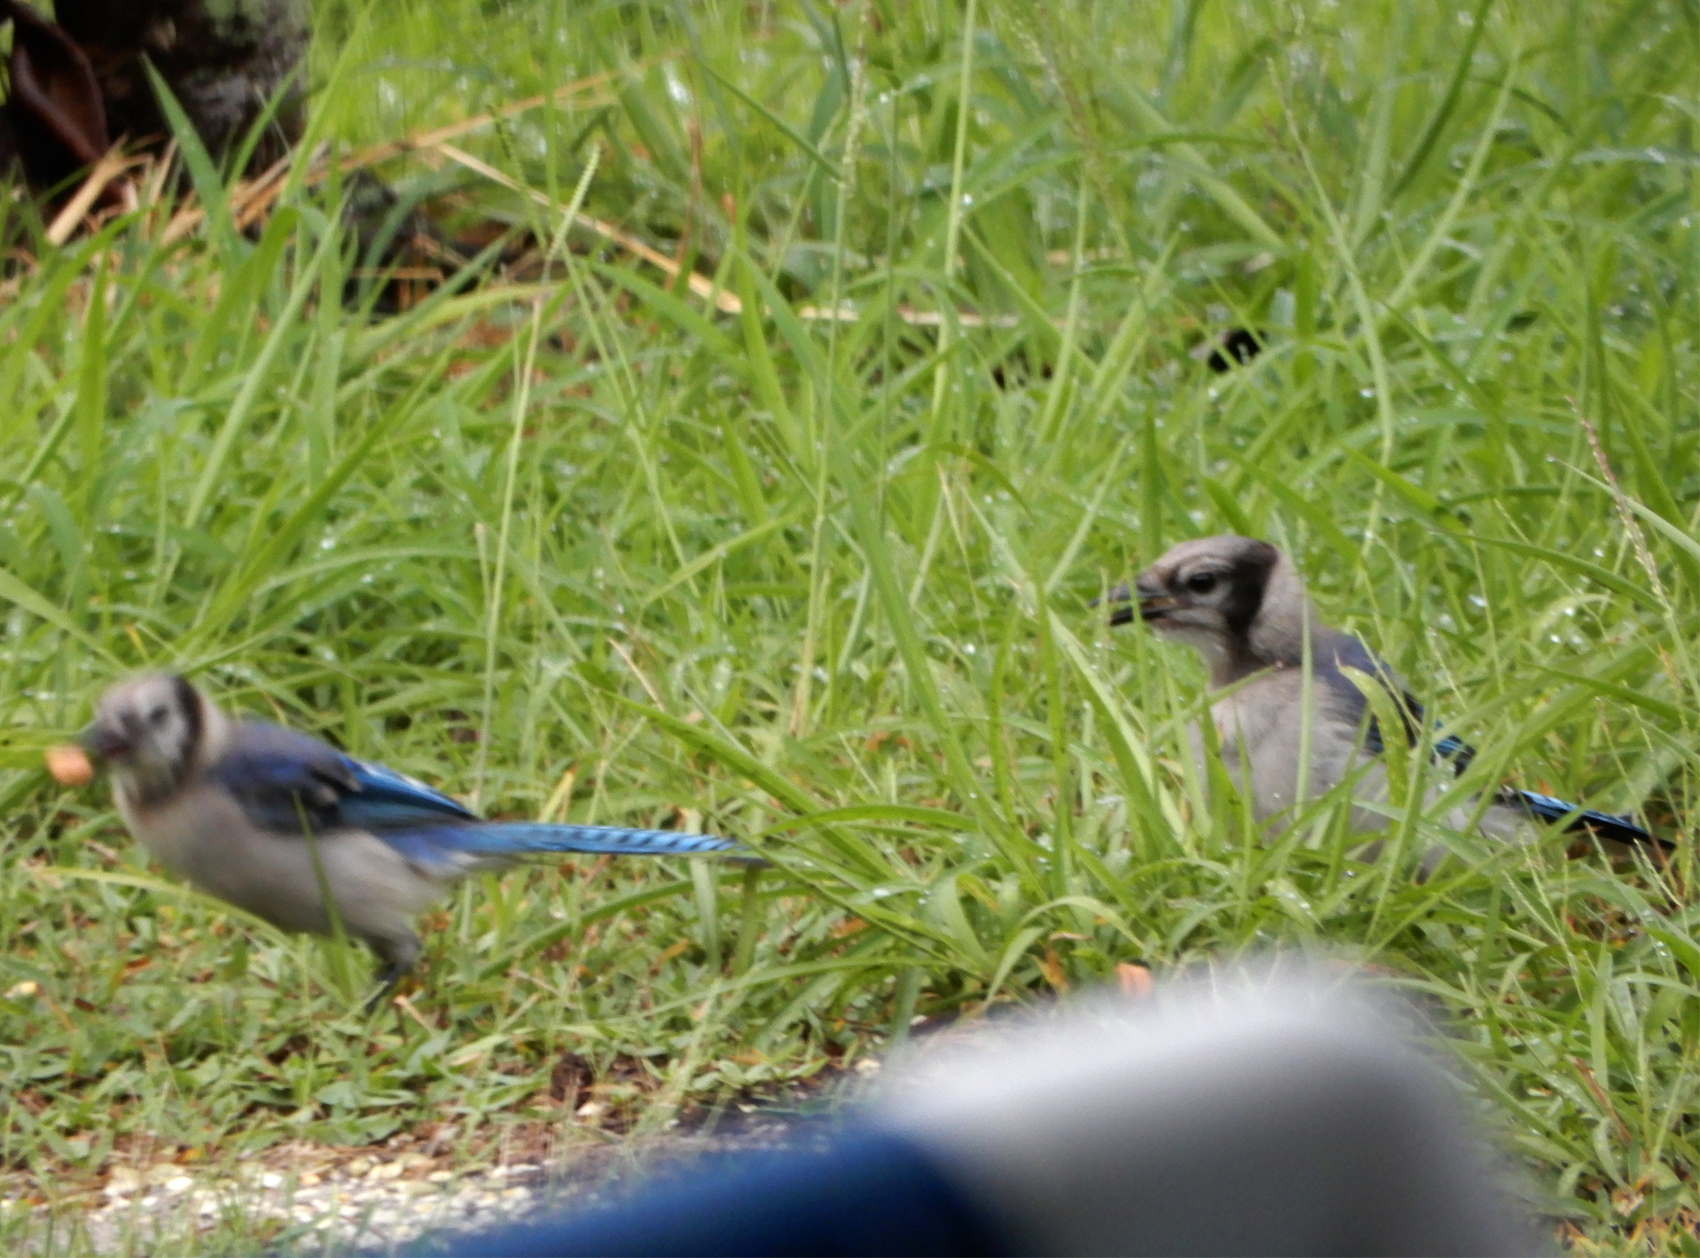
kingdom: Animalia
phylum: Chordata
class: Aves
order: Passeriformes
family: Corvidae
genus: Cyanocitta
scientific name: Cyanocitta cristata
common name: Blue jay
